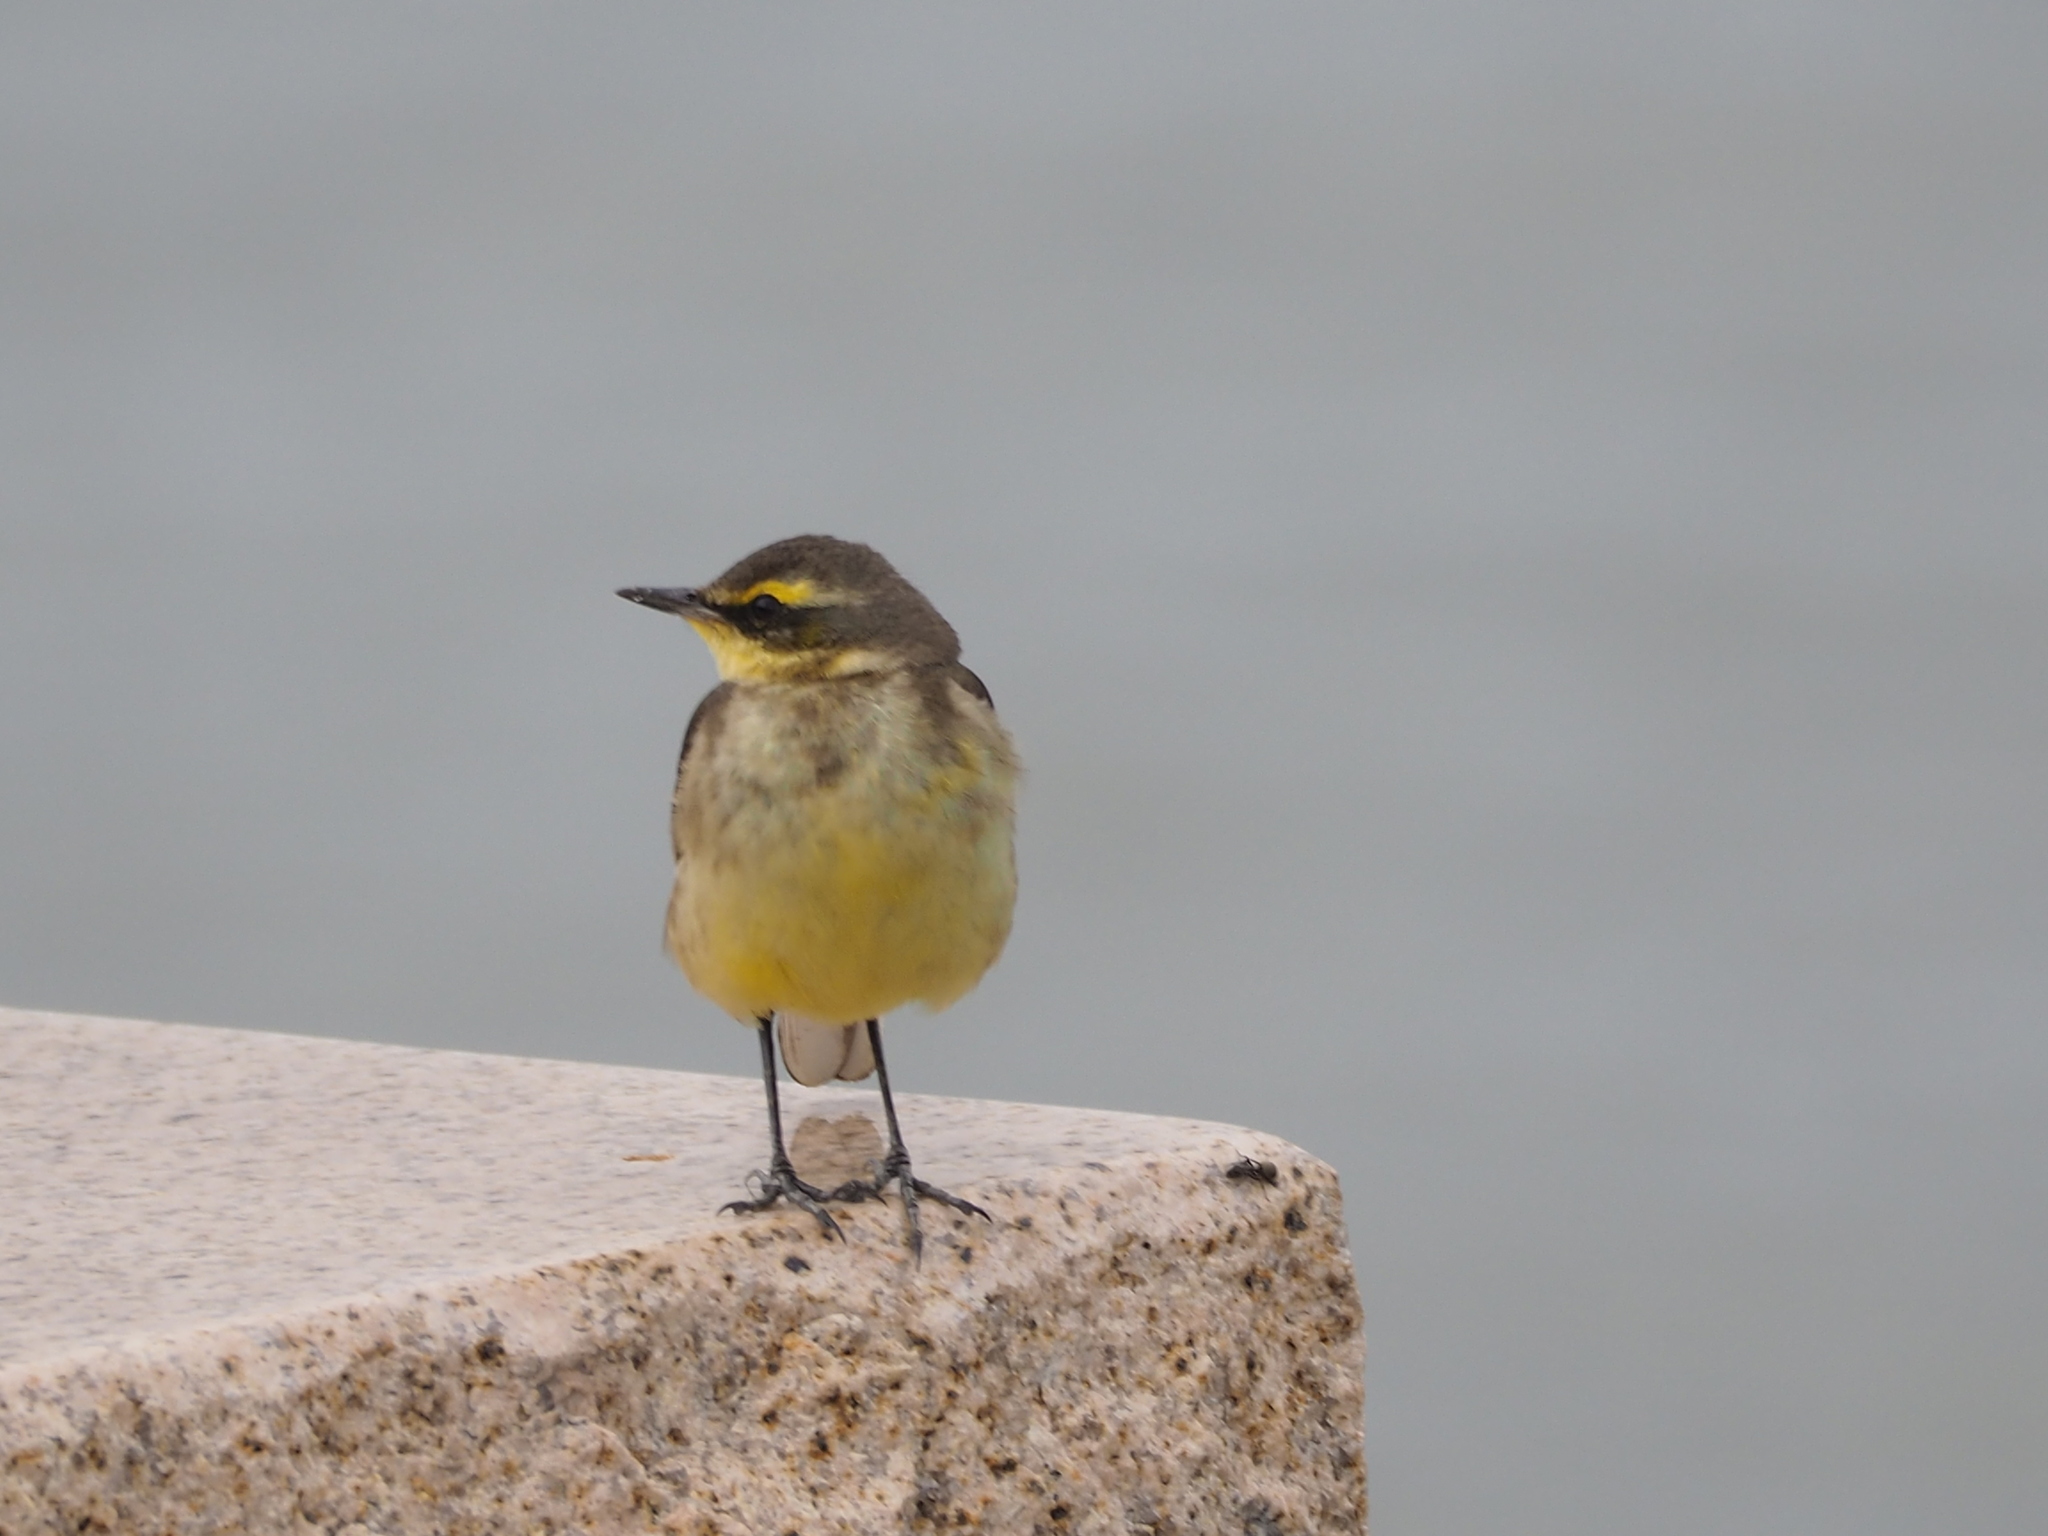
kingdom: Animalia
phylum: Chordata
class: Aves
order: Passeriformes
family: Motacillidae
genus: Motacilla
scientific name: Motacilla tschutschensis
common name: Eastern yellow wagtail
